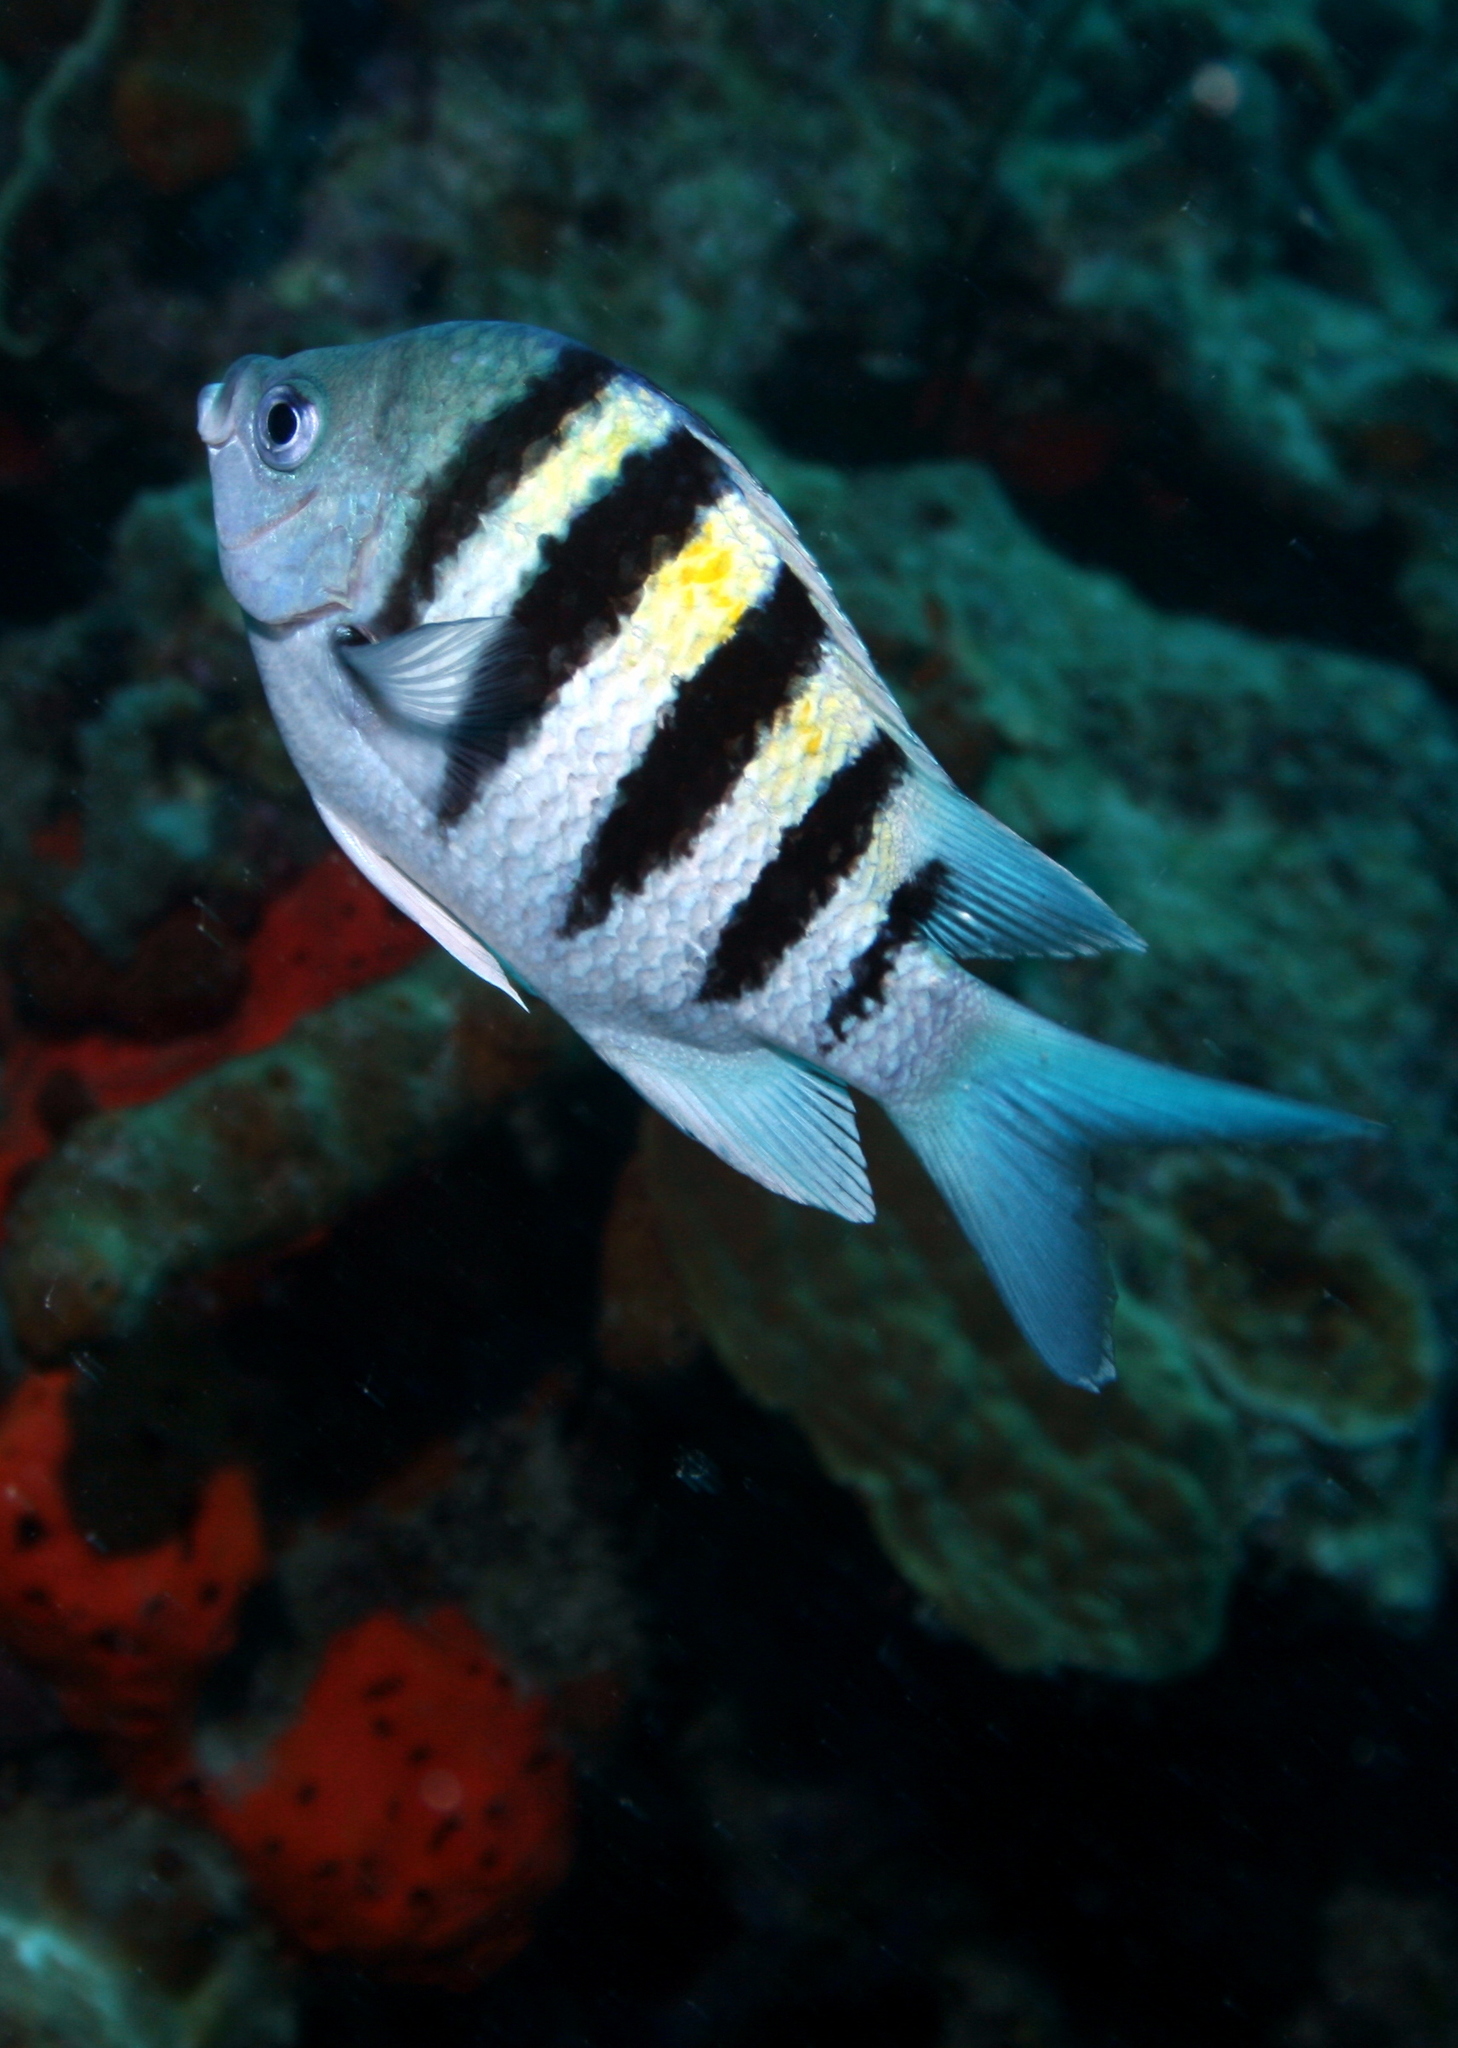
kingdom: Animalia
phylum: Chordata
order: Perciformes
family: Pomacentridae
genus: Abudefduf
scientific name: Abudefduf saxatilis
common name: Sergeant major
